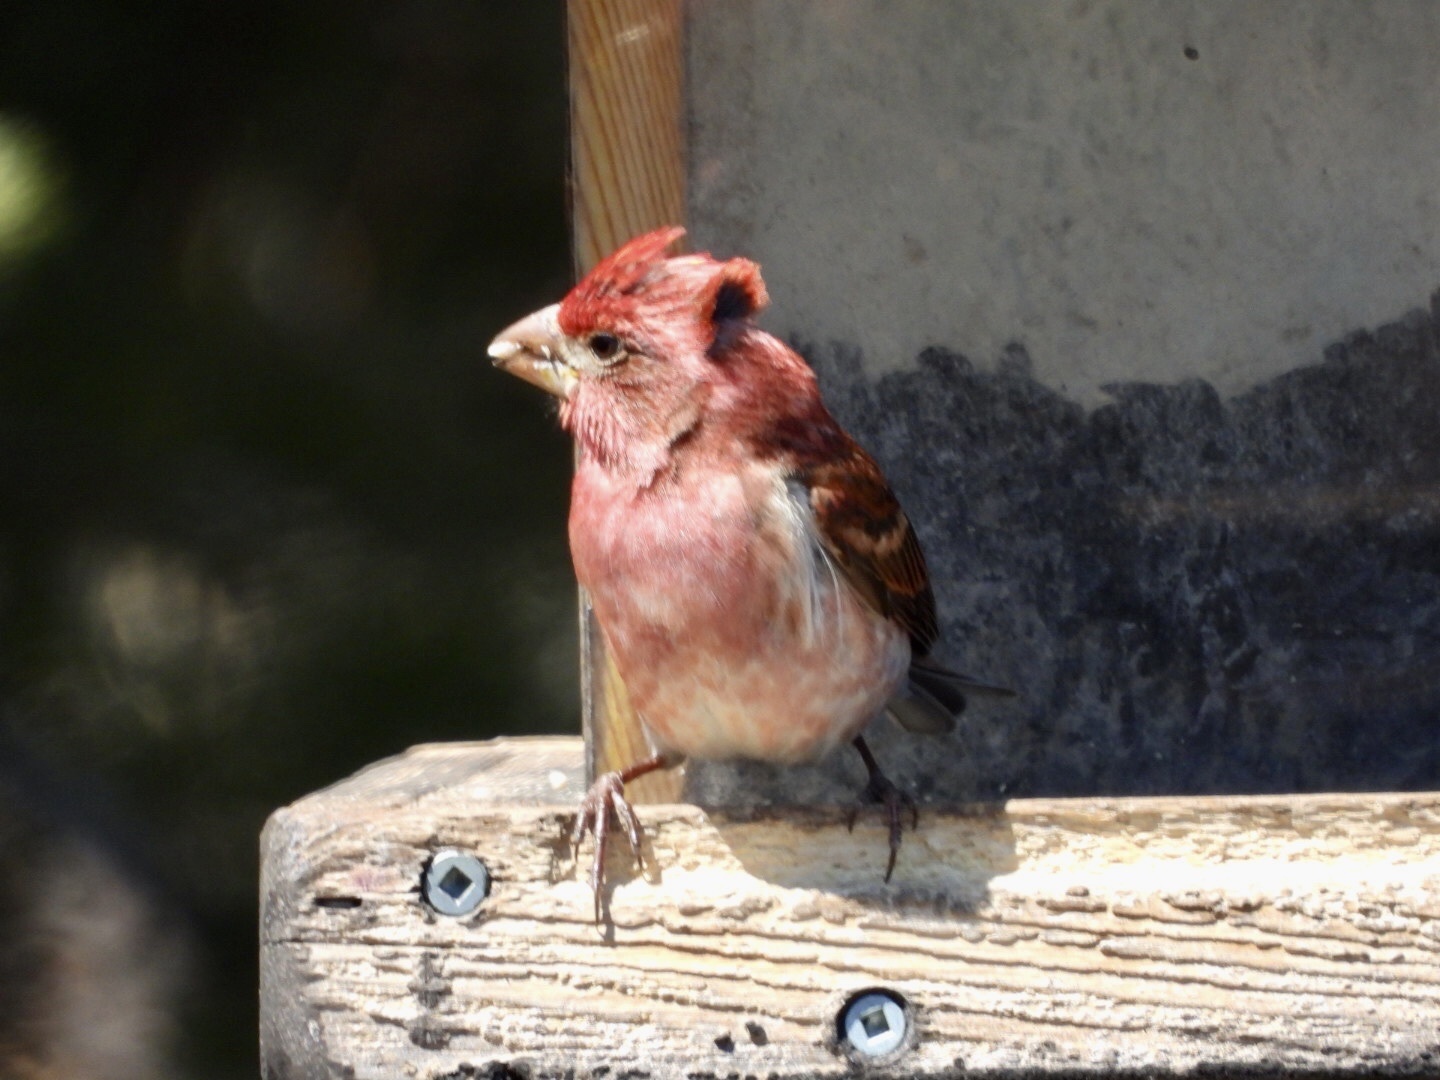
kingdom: Animalia
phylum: Chordata
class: Aves
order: Passeriformes
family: Fringillidae
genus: Haemorhous
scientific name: Haemorhous purpureus
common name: Purple finch
